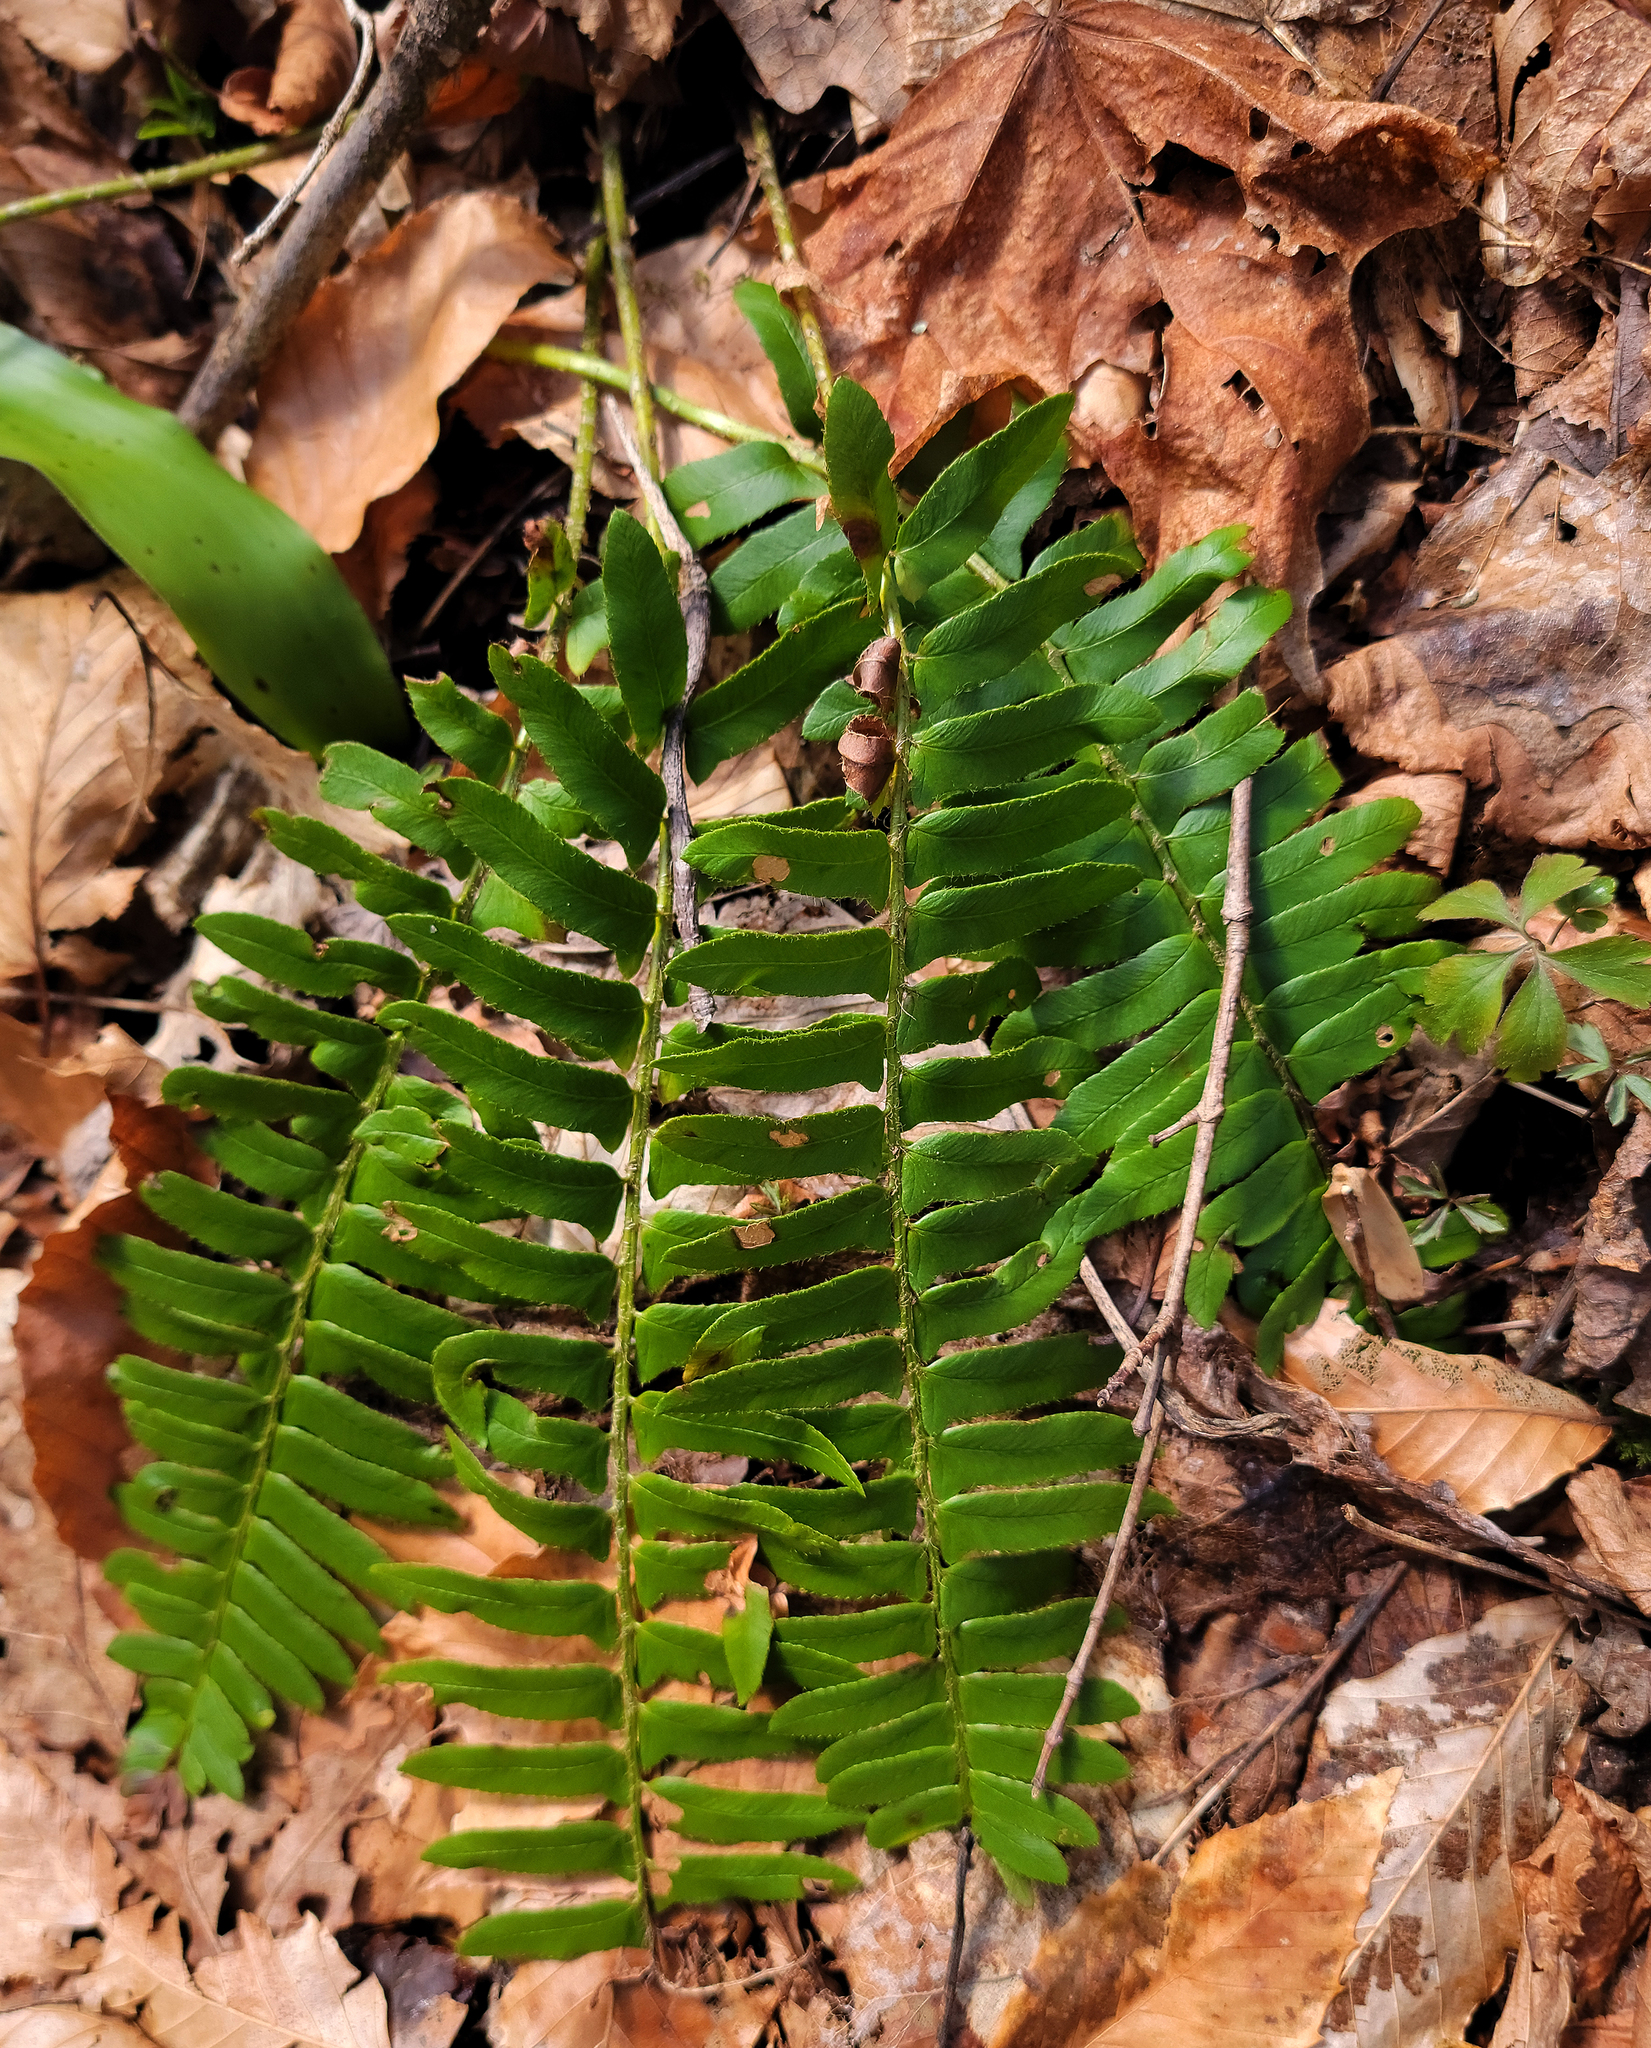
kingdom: Plantae
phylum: Tracheophyta
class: Polypodiopsida
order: Polypodiales
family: Dryopteridaceae
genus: Polystichum
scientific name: Polystichum acrostichoides
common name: Christmas fern
